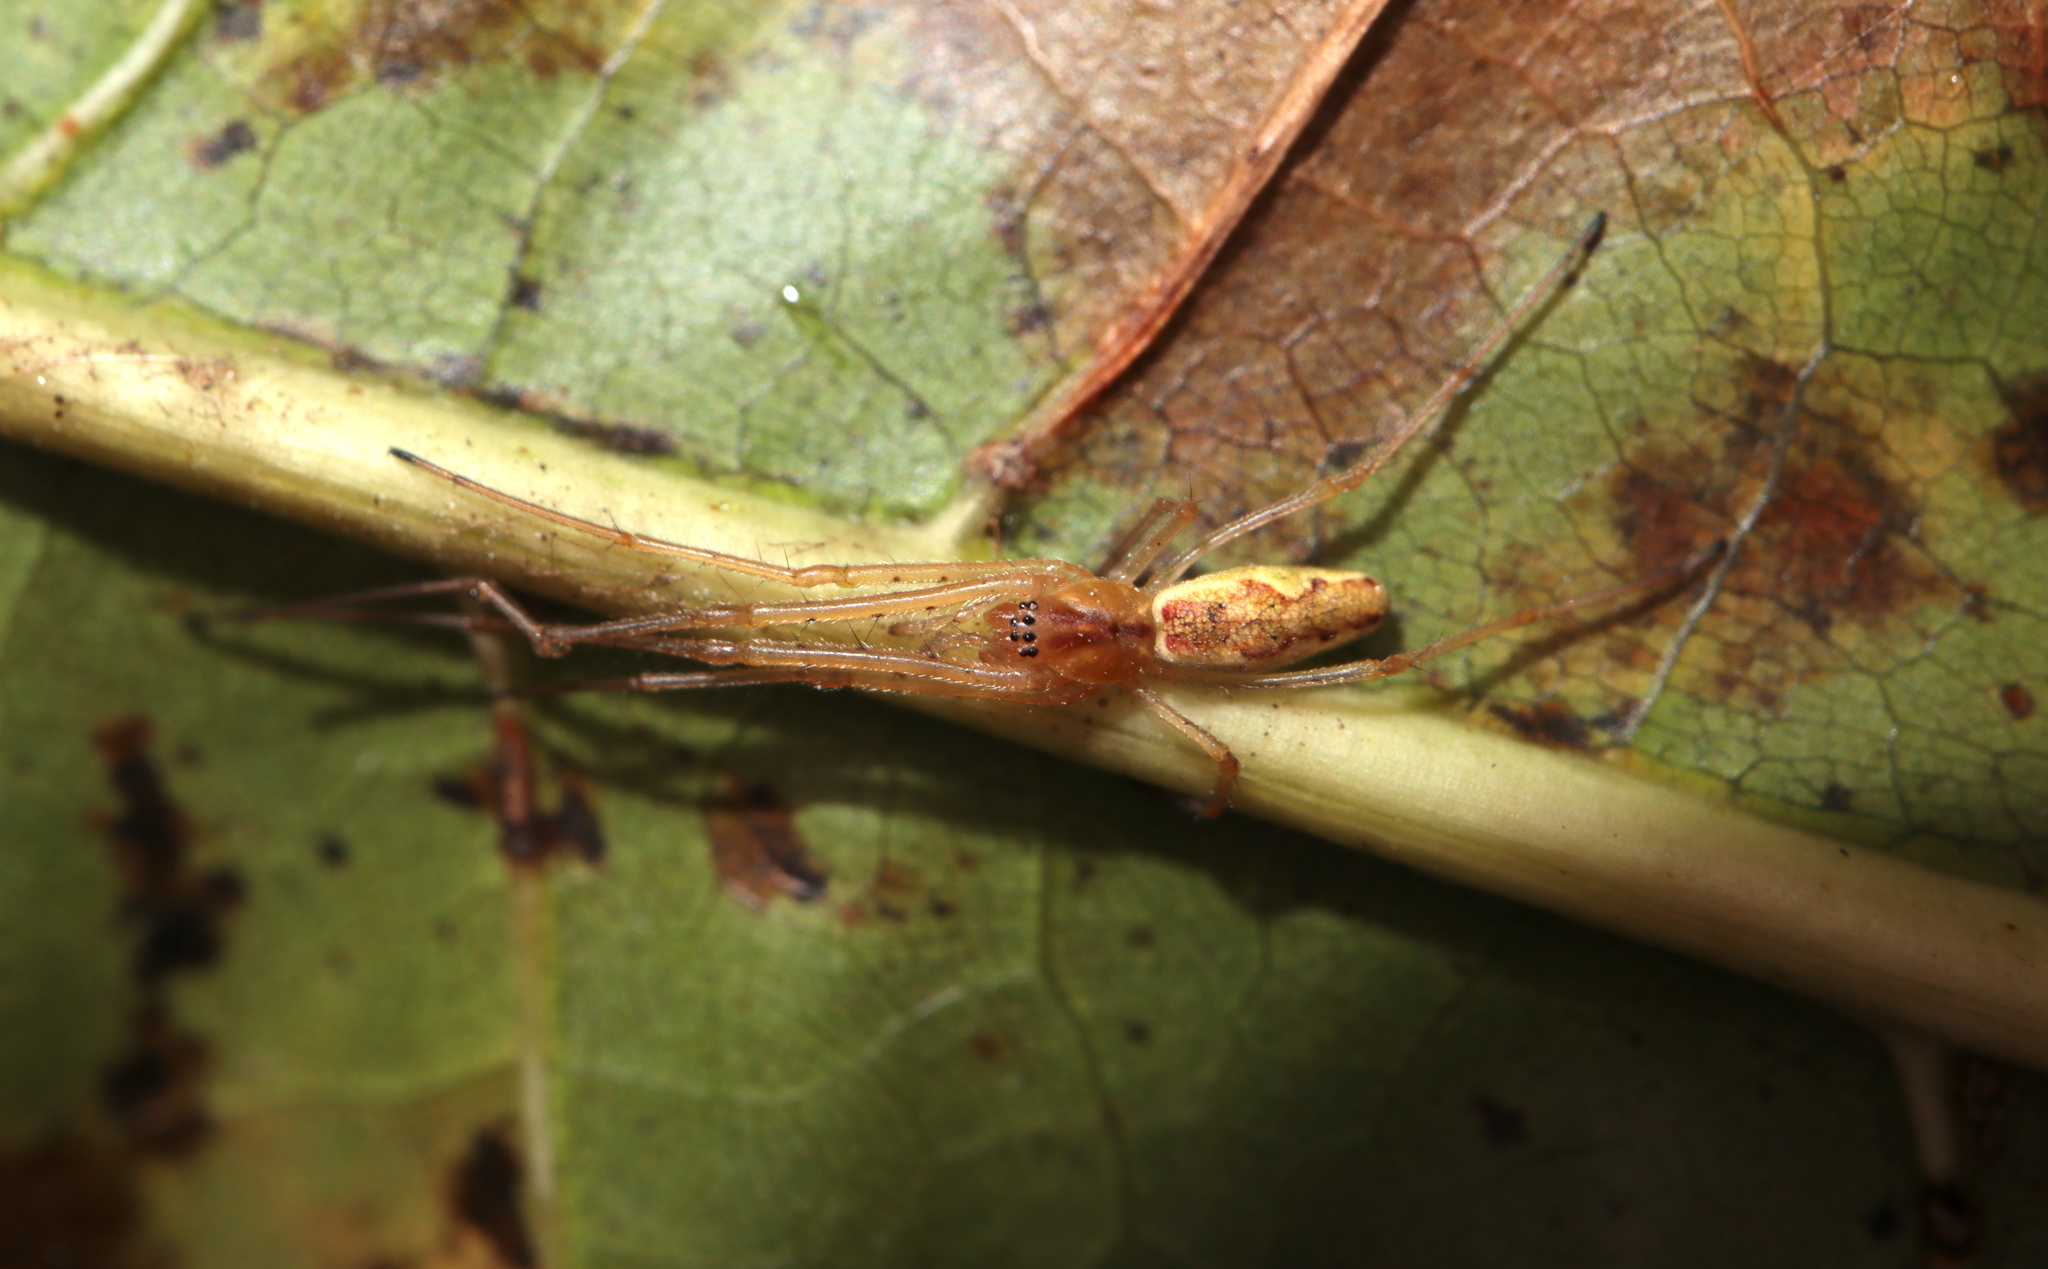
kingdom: Animalia
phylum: Arthropoda
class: Arachnida
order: Araneae
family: Tetragnathidae
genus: Tetragnatha
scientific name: Tetragnatha extensa
